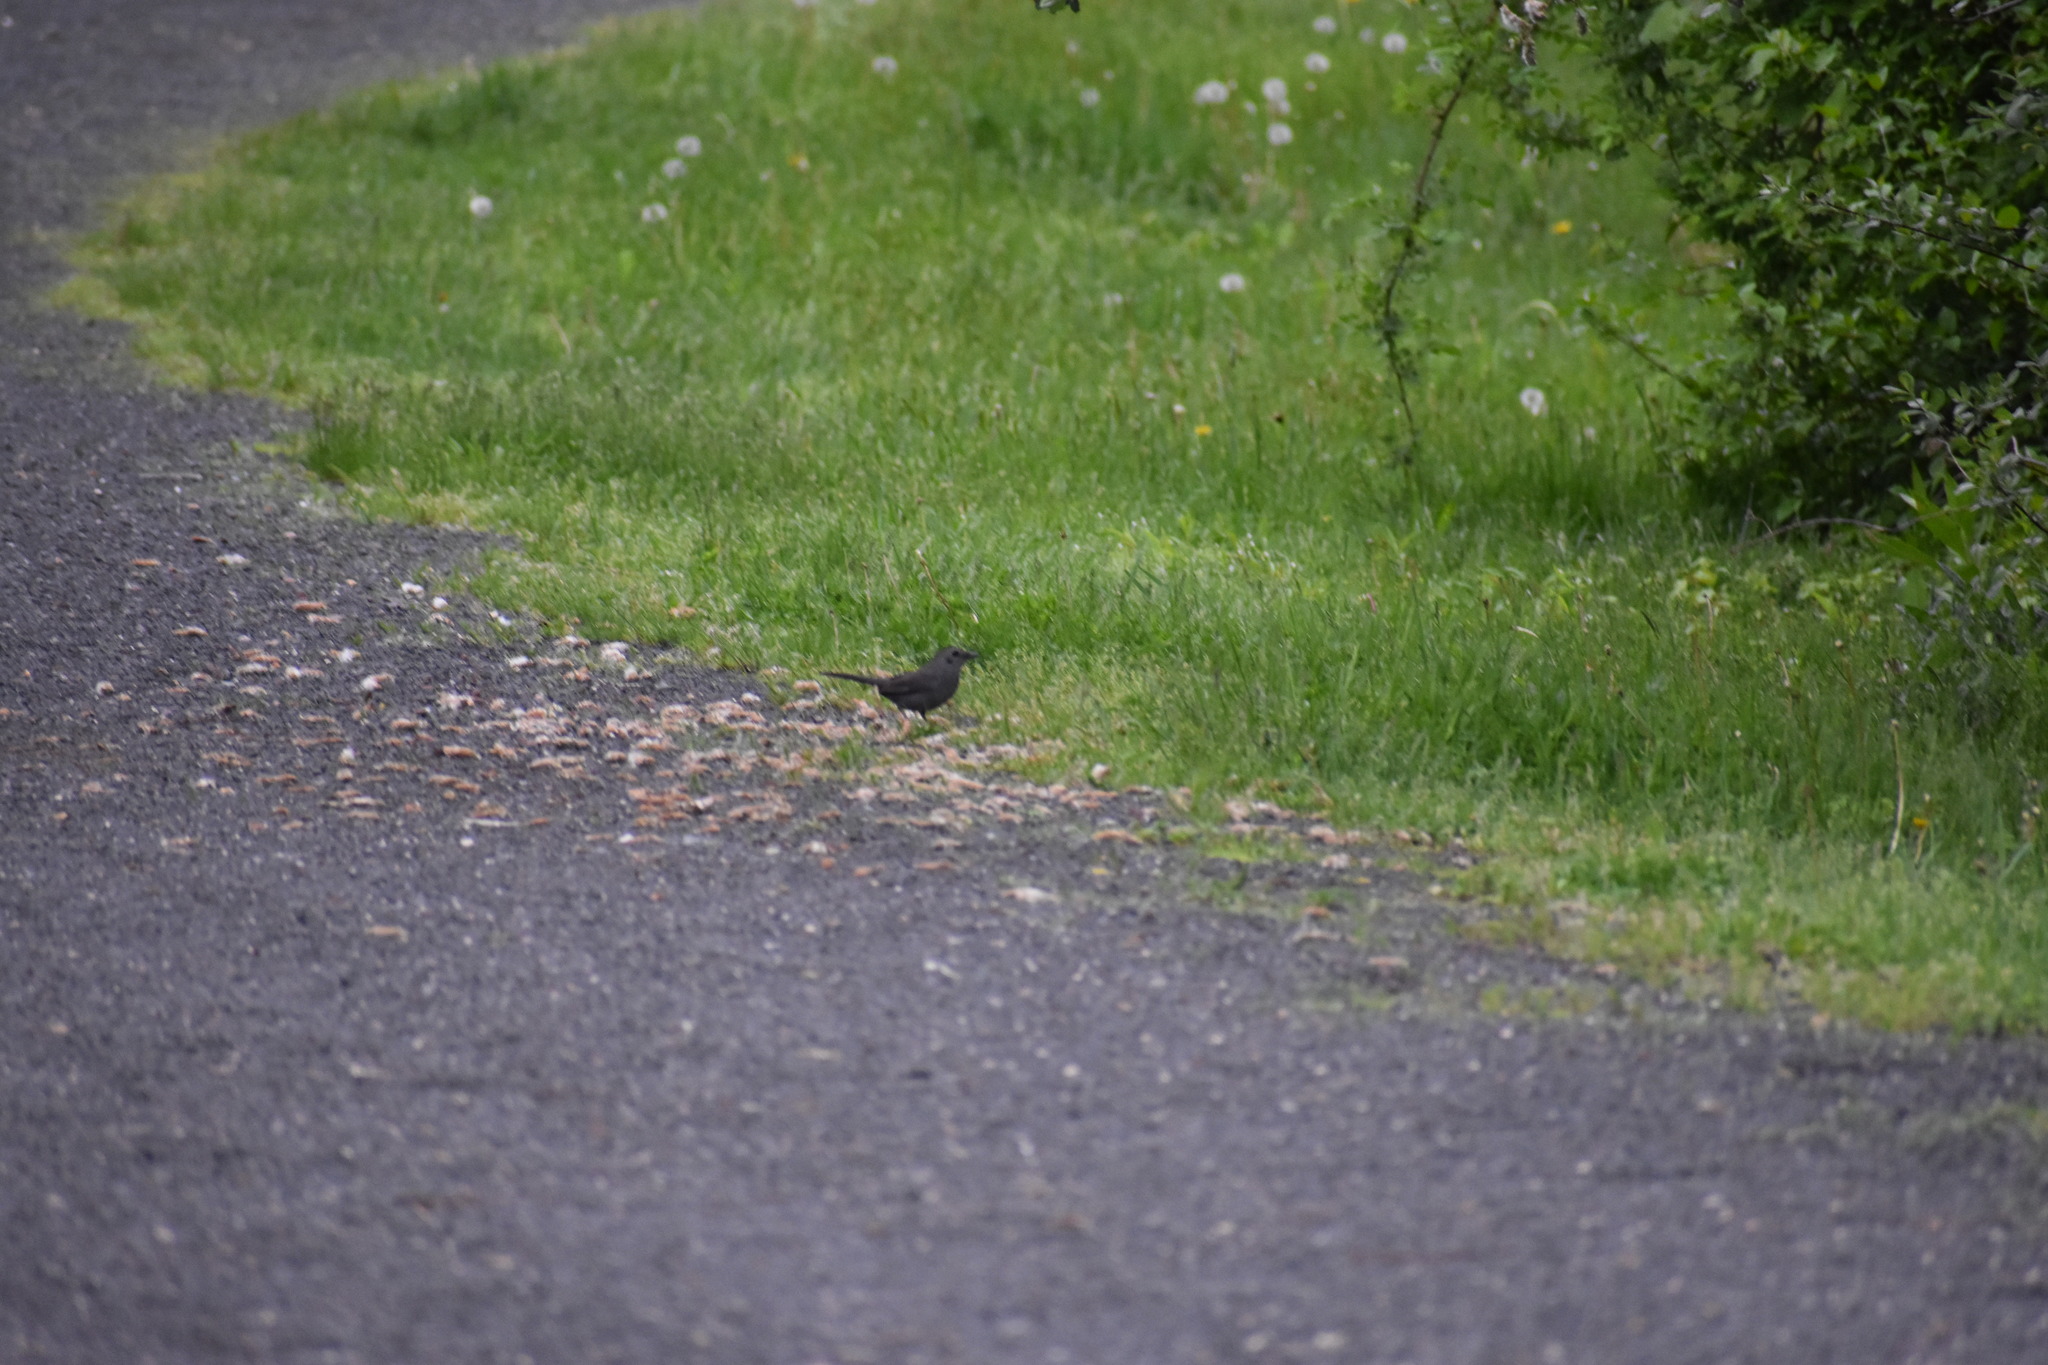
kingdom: Animalia
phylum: Chordata
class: Aves
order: Passeriformes
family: Mimidae
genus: Dumetella
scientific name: Dumetella carolinensis
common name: Gray catbird
